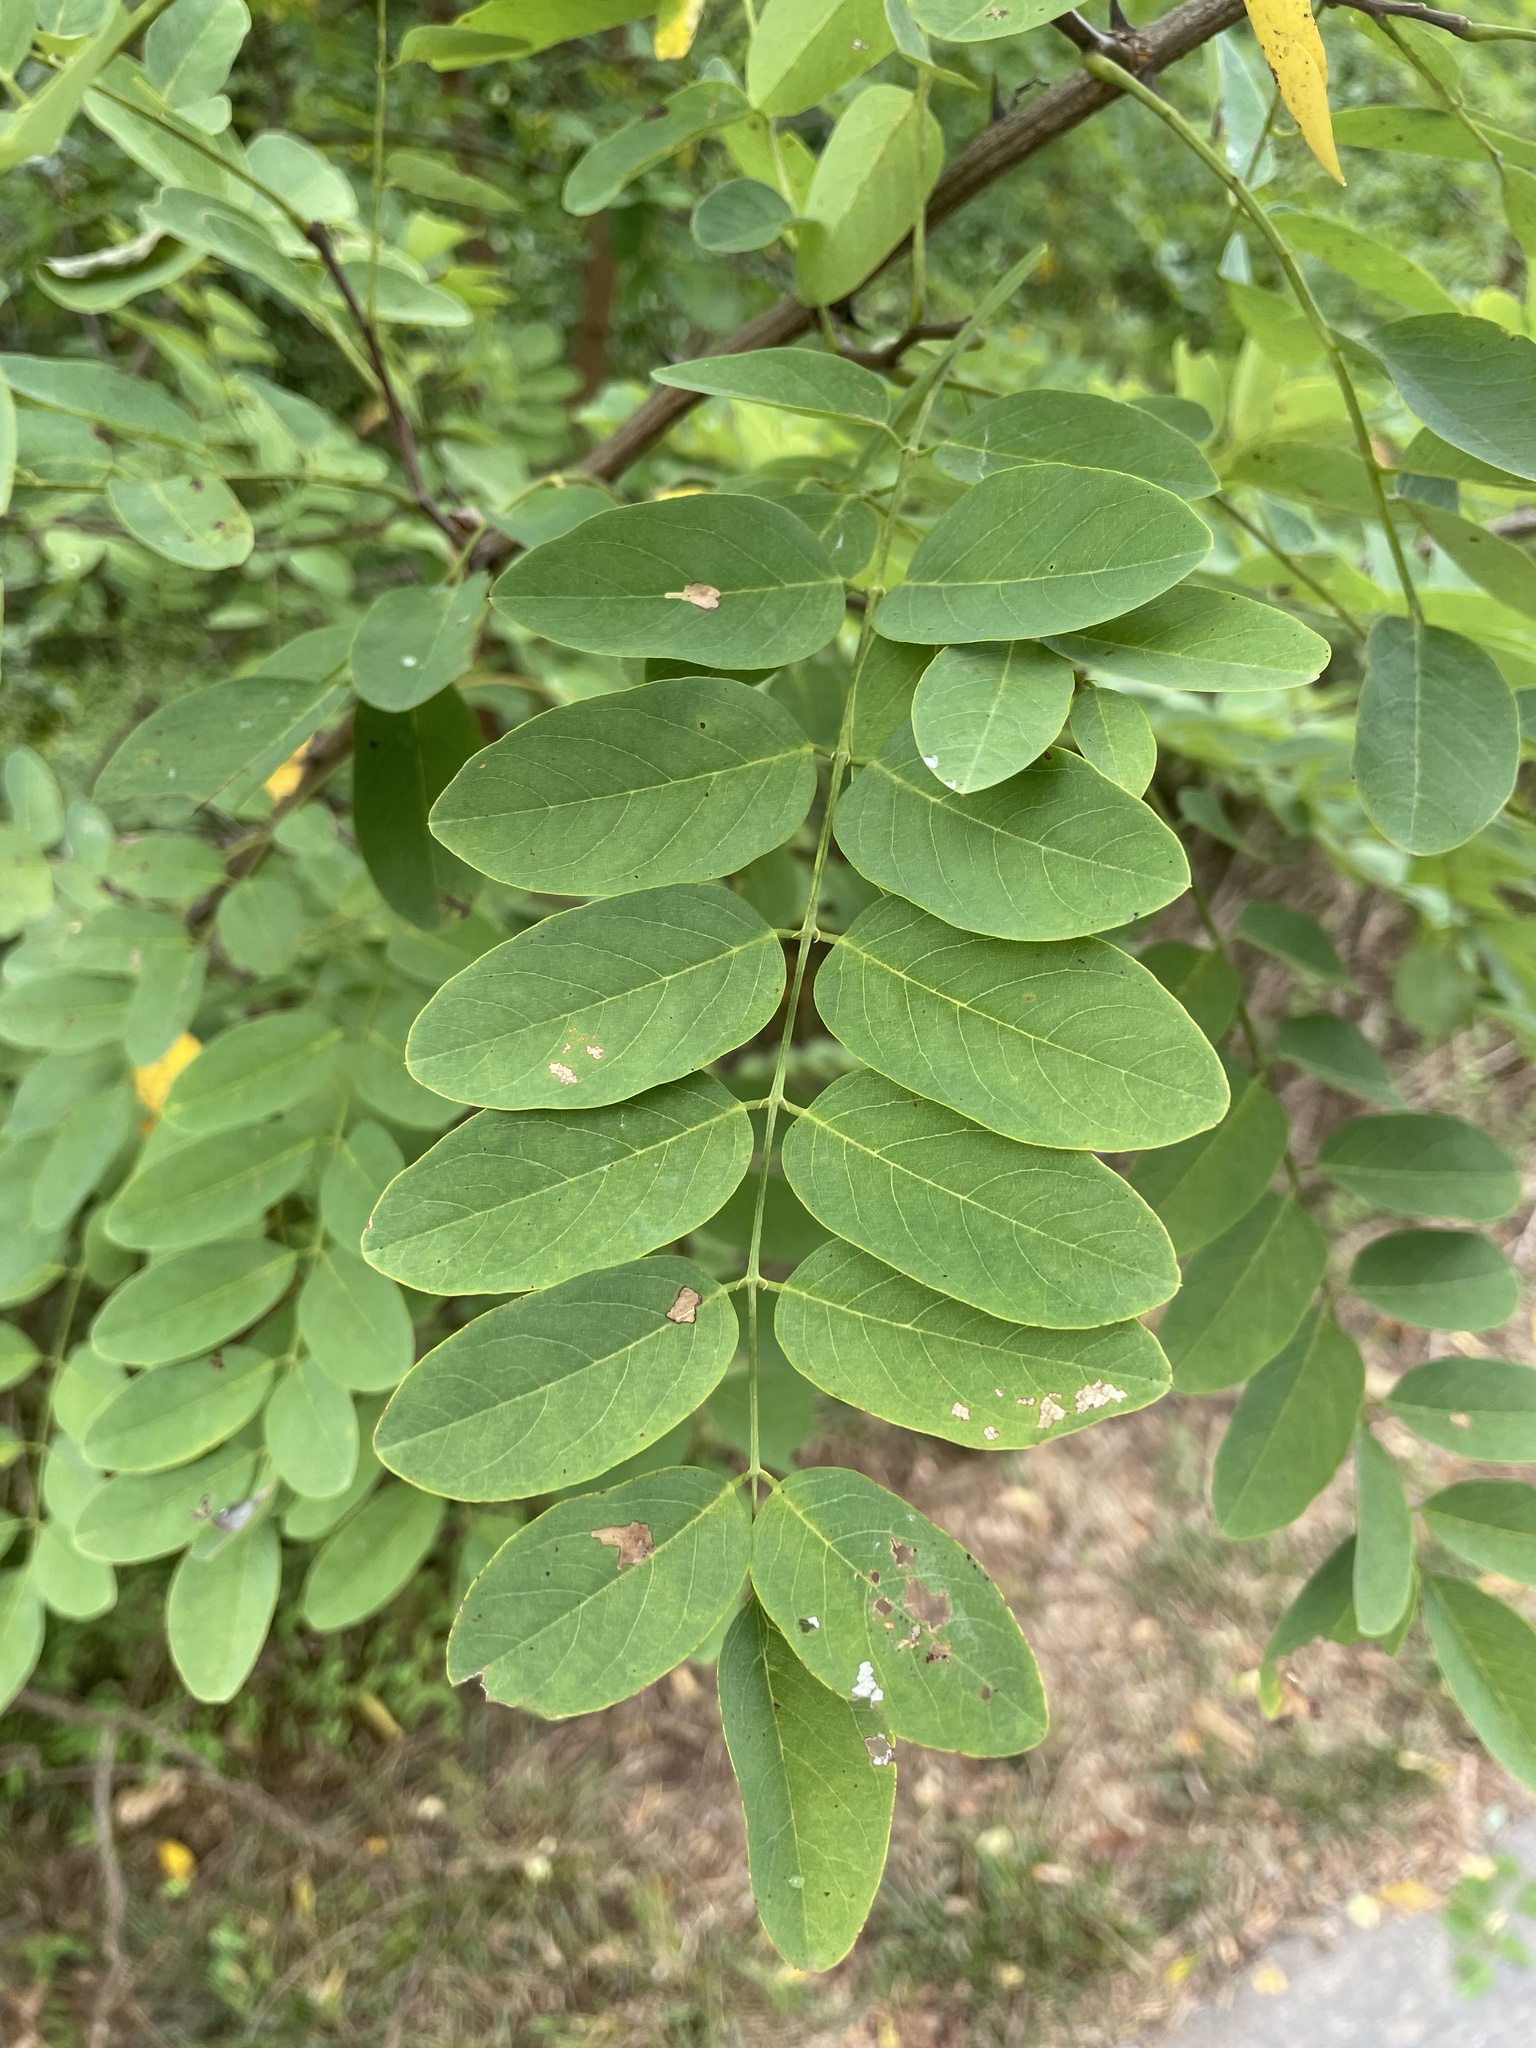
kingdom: Plantae
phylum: Tracheophyta
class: Magnoliopsida
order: Fabales
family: Fabaceae
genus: Robinia
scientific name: Robinia pseudoacacia
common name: Black locust
